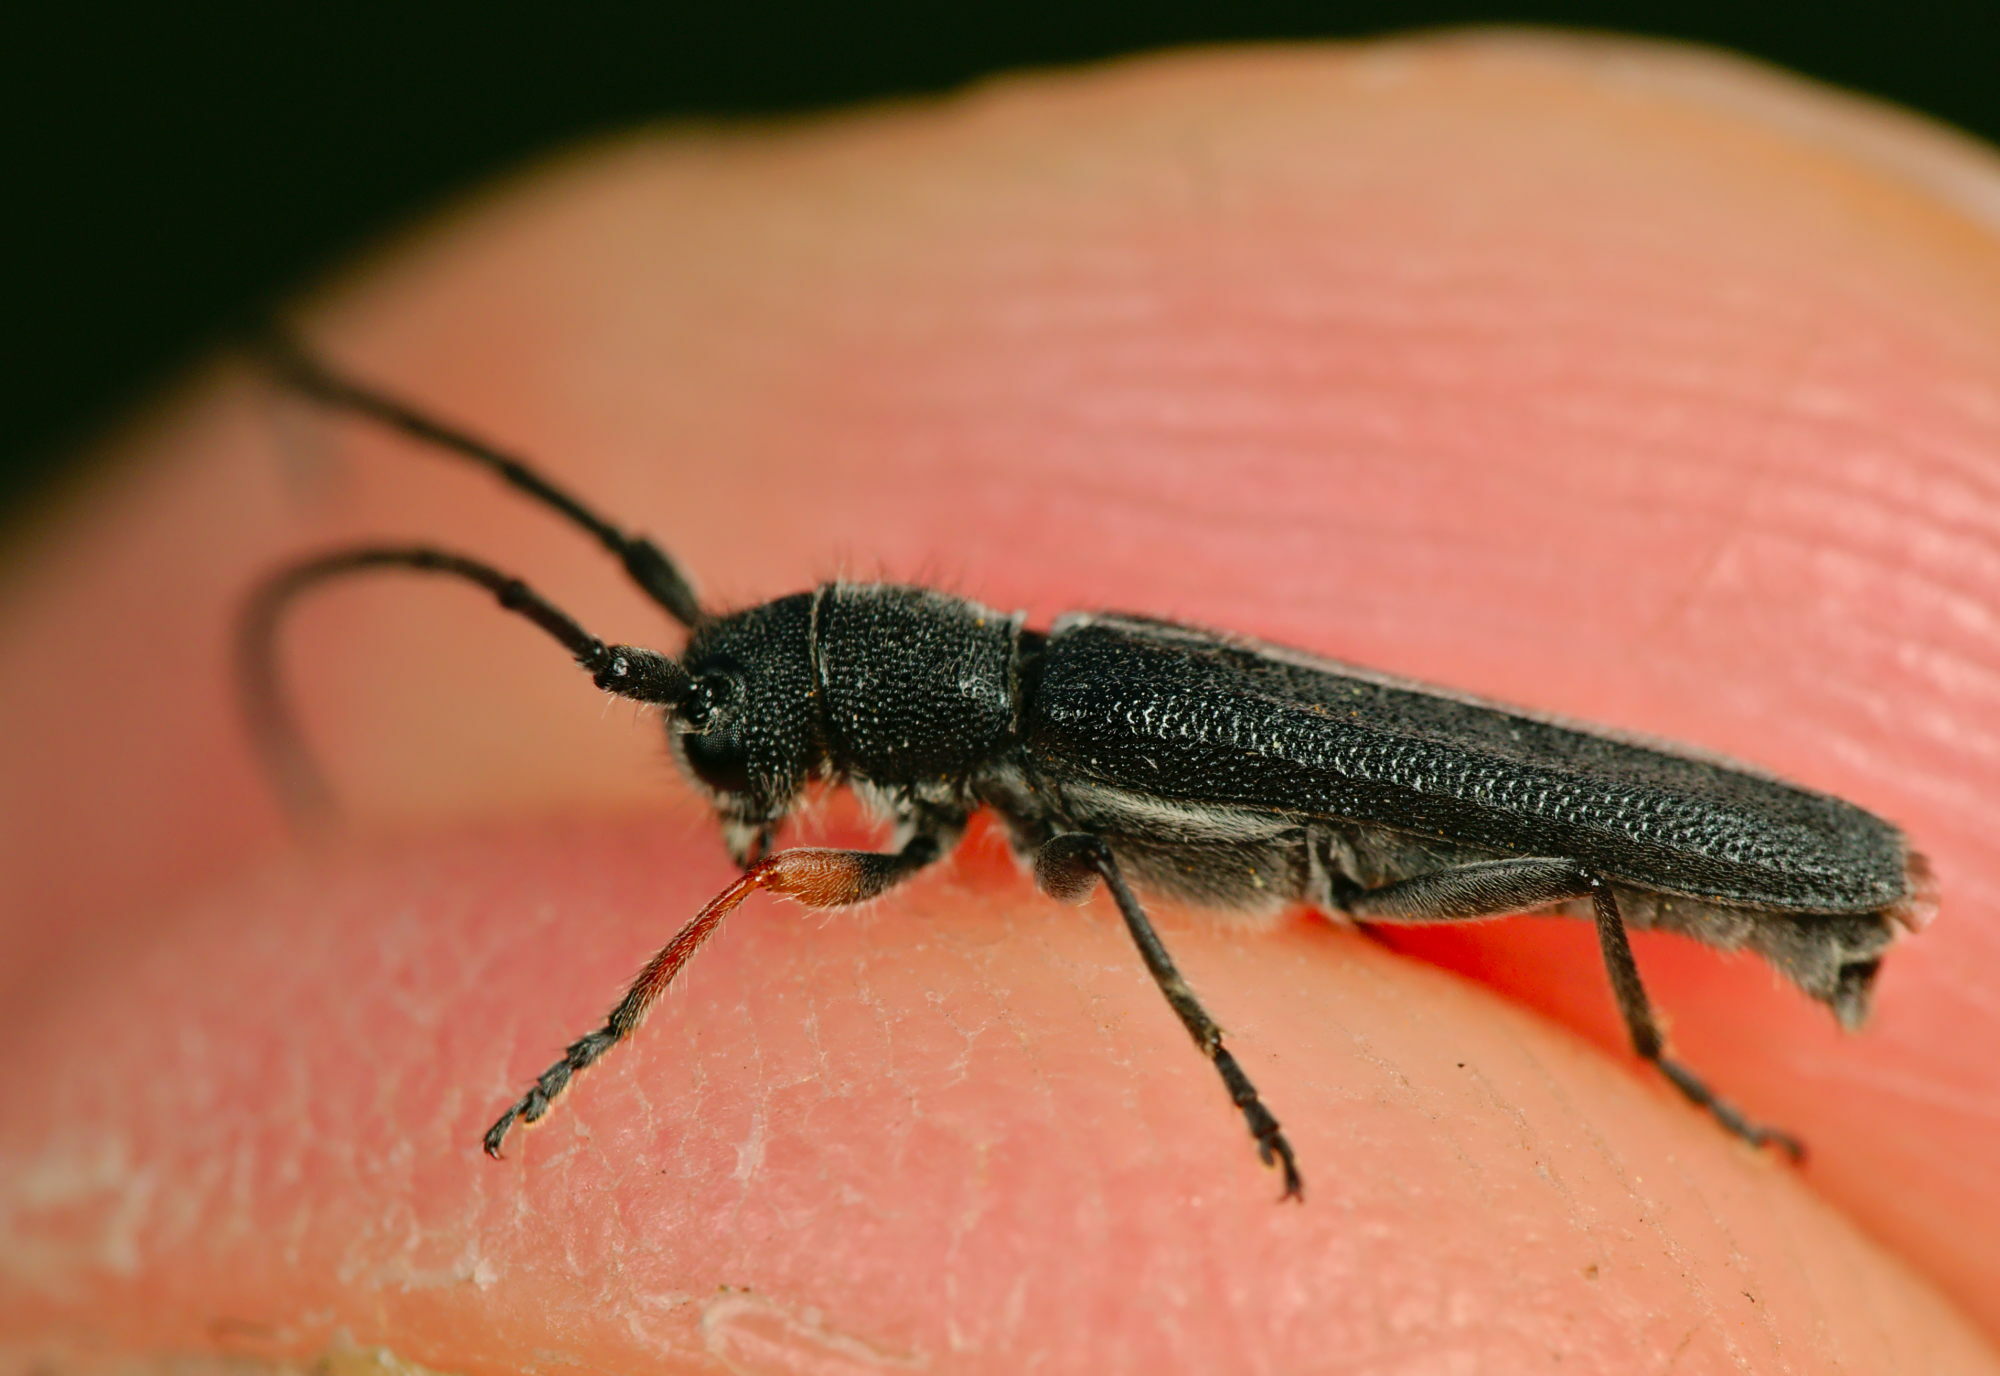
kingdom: Animalia
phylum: Arthropoda
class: Insecta
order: Coleoptera
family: Cerambycidae
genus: Phytoecia
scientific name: Phytoecia cylindrica
